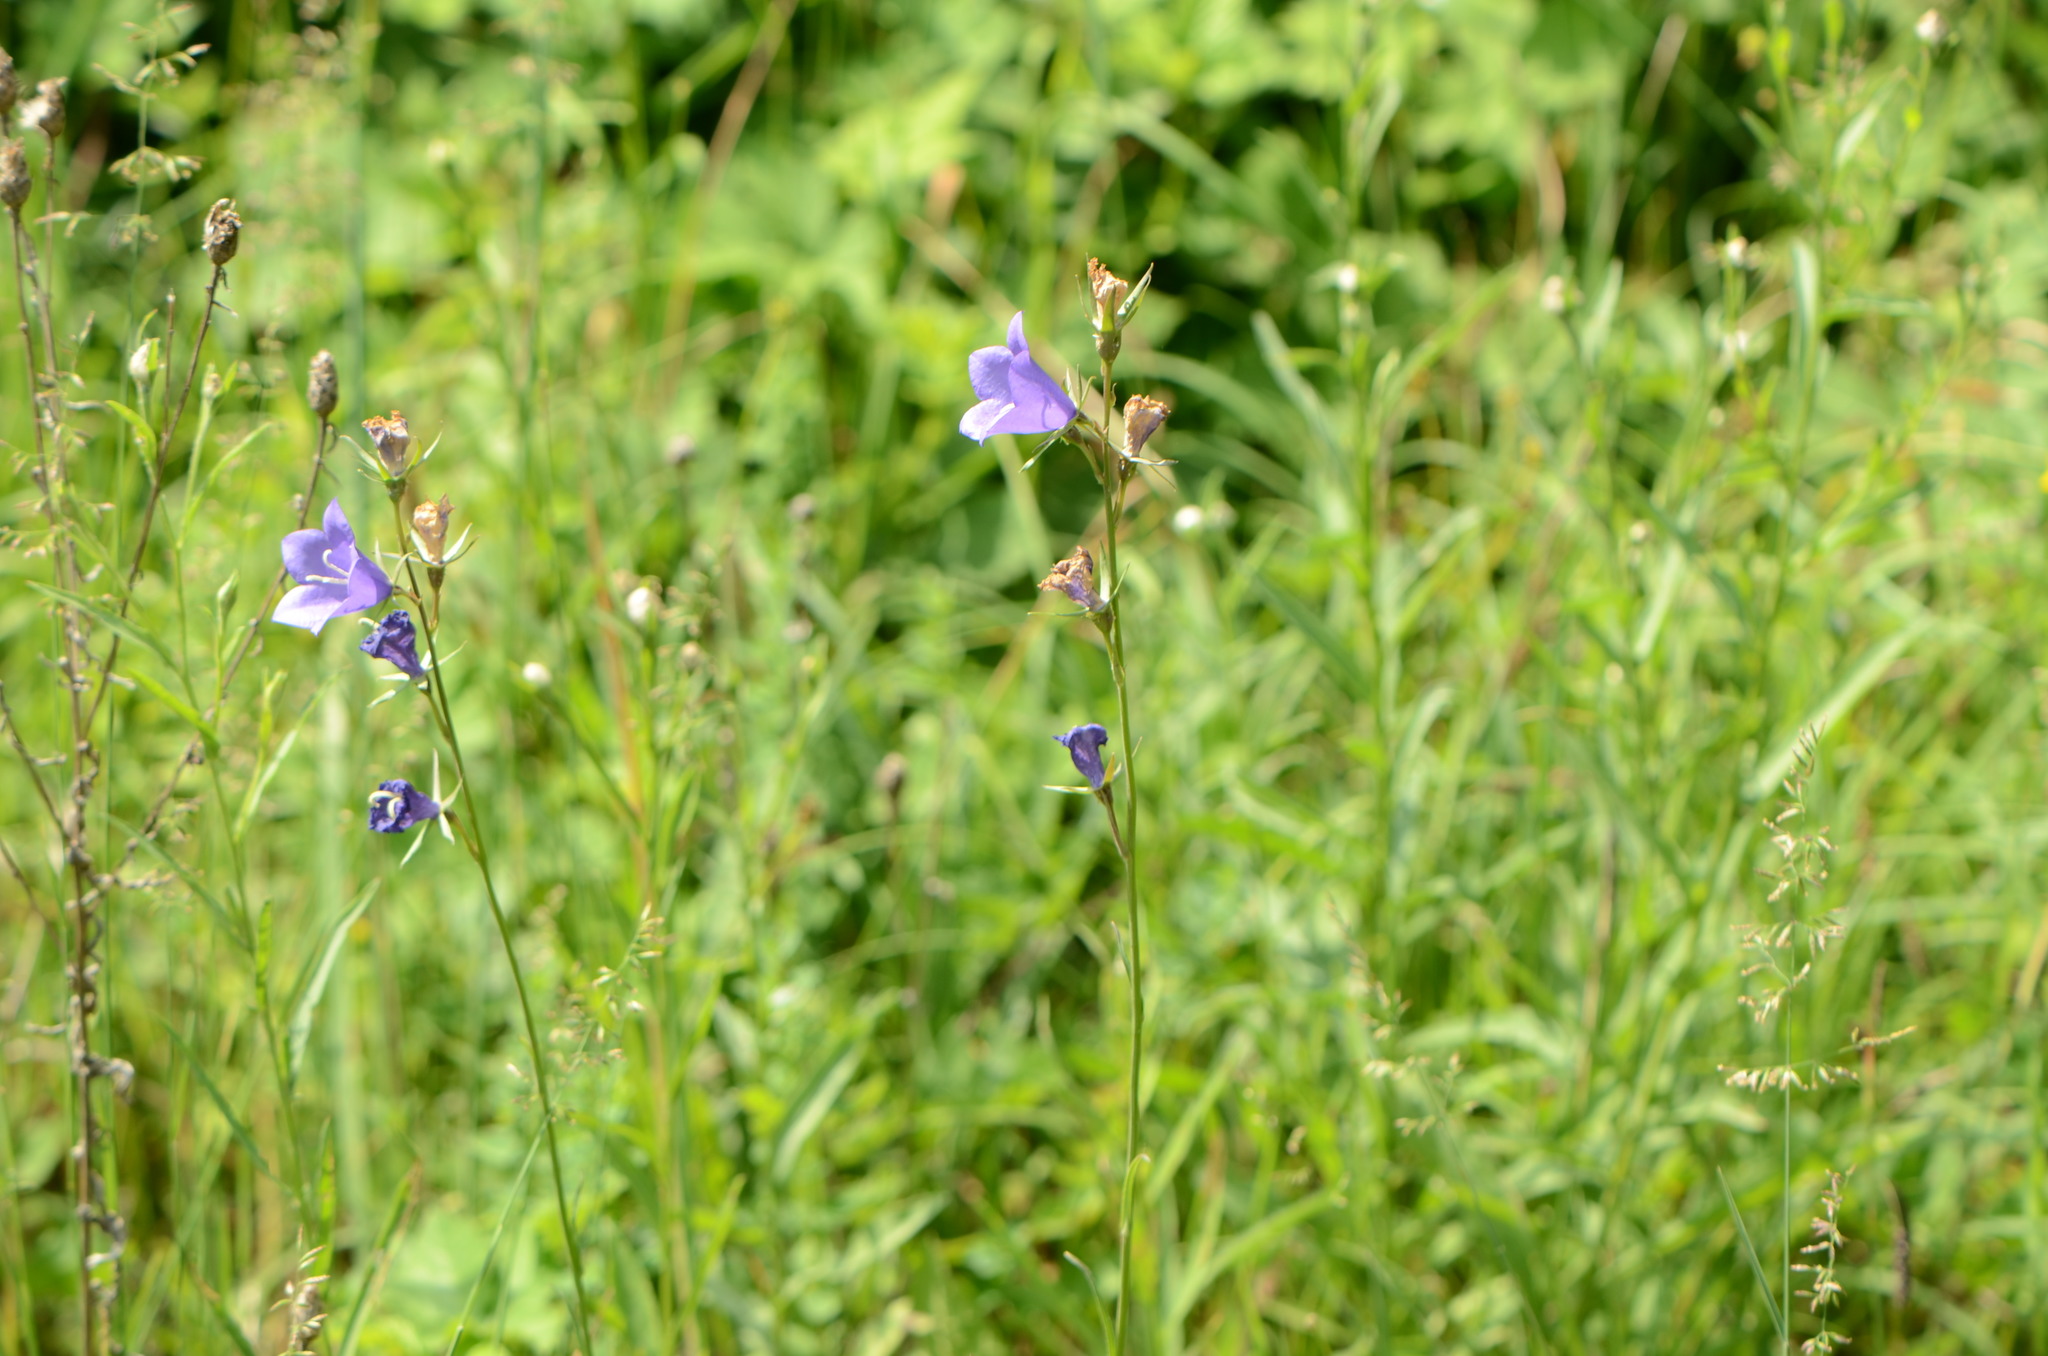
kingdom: Plantae
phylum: Tracheophyta
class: Magnoliopsida
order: Asterales
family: Campanulaceae
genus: Campanula
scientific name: Campanula persicifolia
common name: Peach-leaved bellflower
